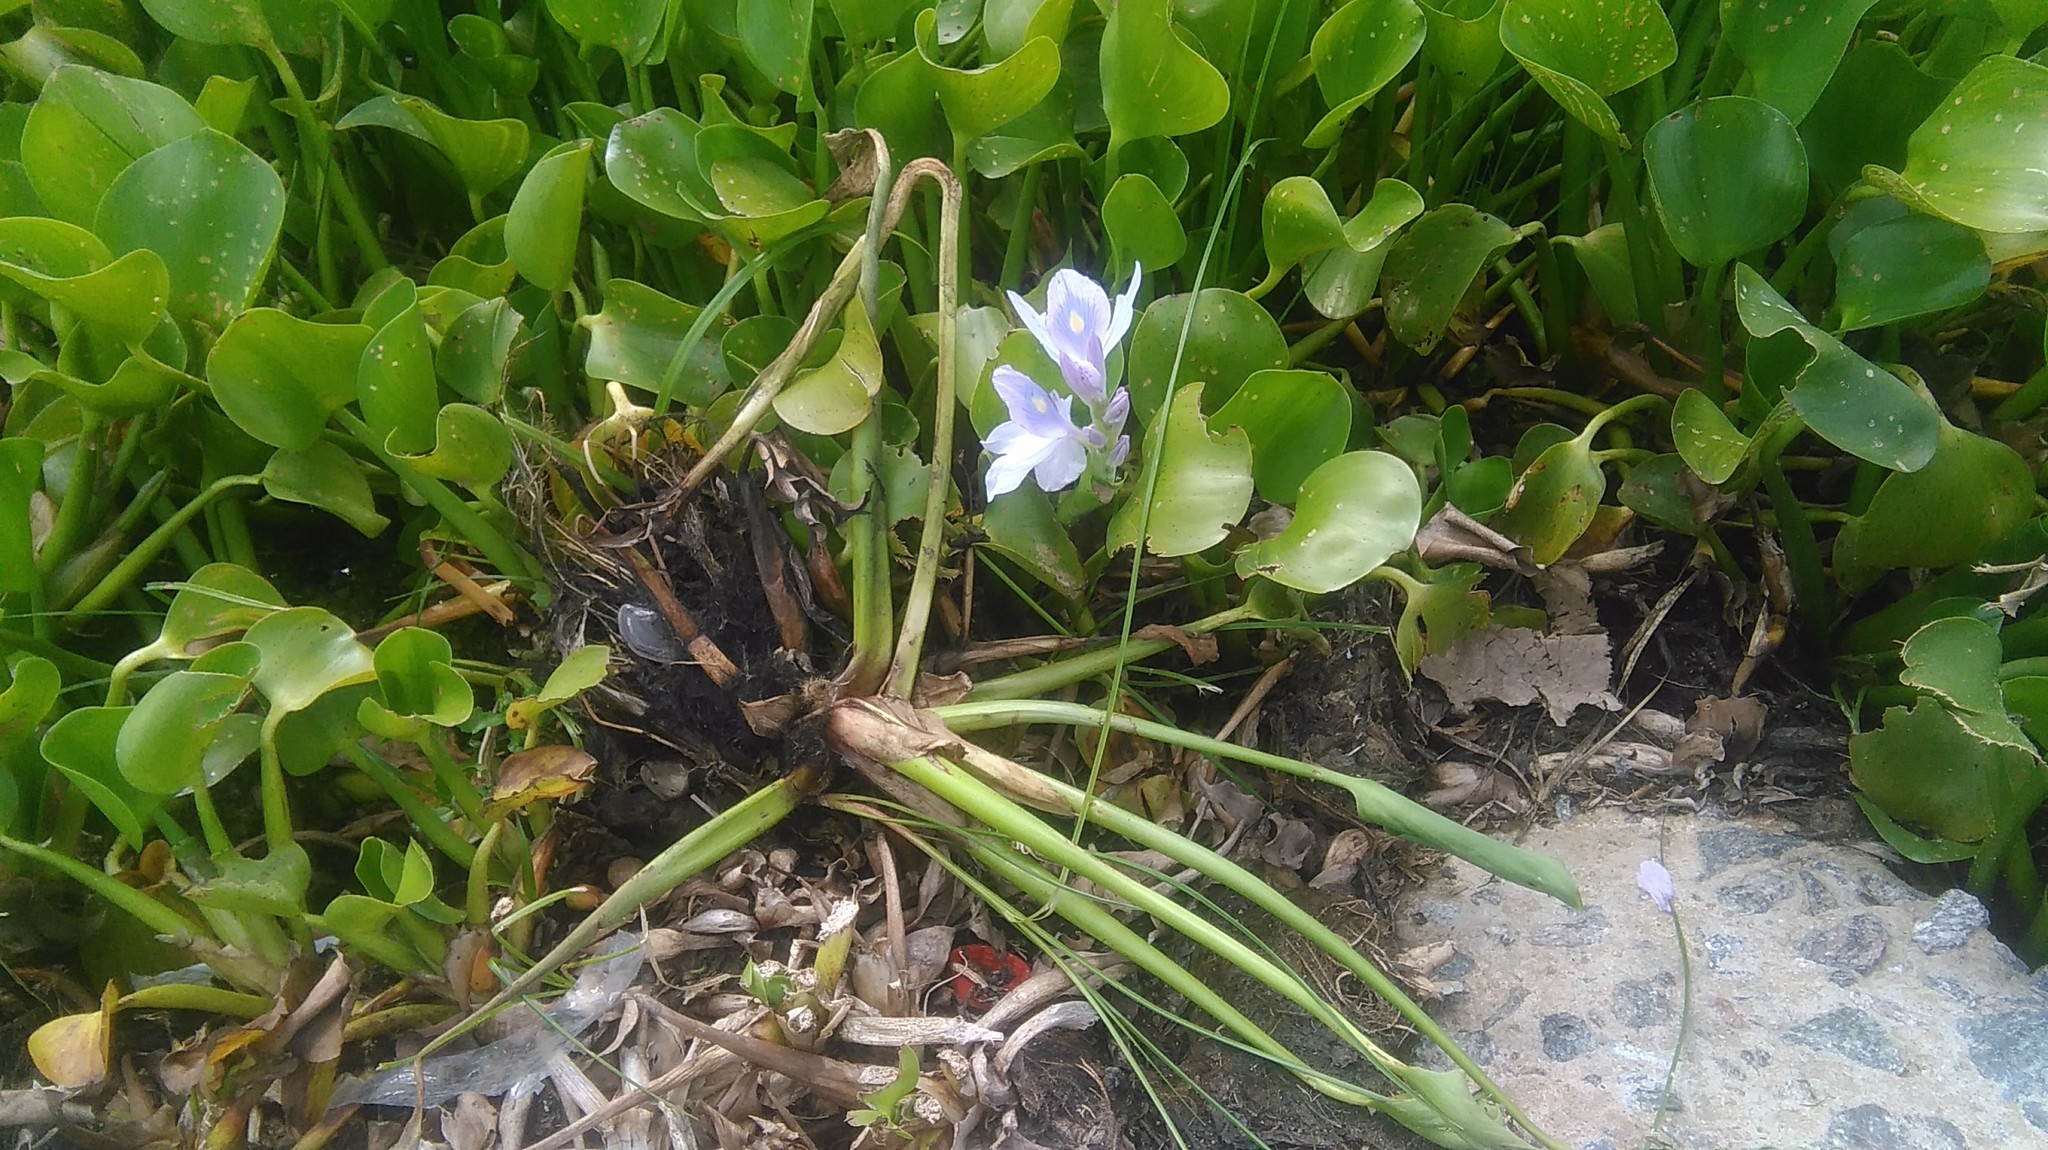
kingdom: Plantae
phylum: Tracheophyta
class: Liliopsida
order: Commelinales
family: Pontederiaceae
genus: Pontederia
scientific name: Pontederia crassipes
